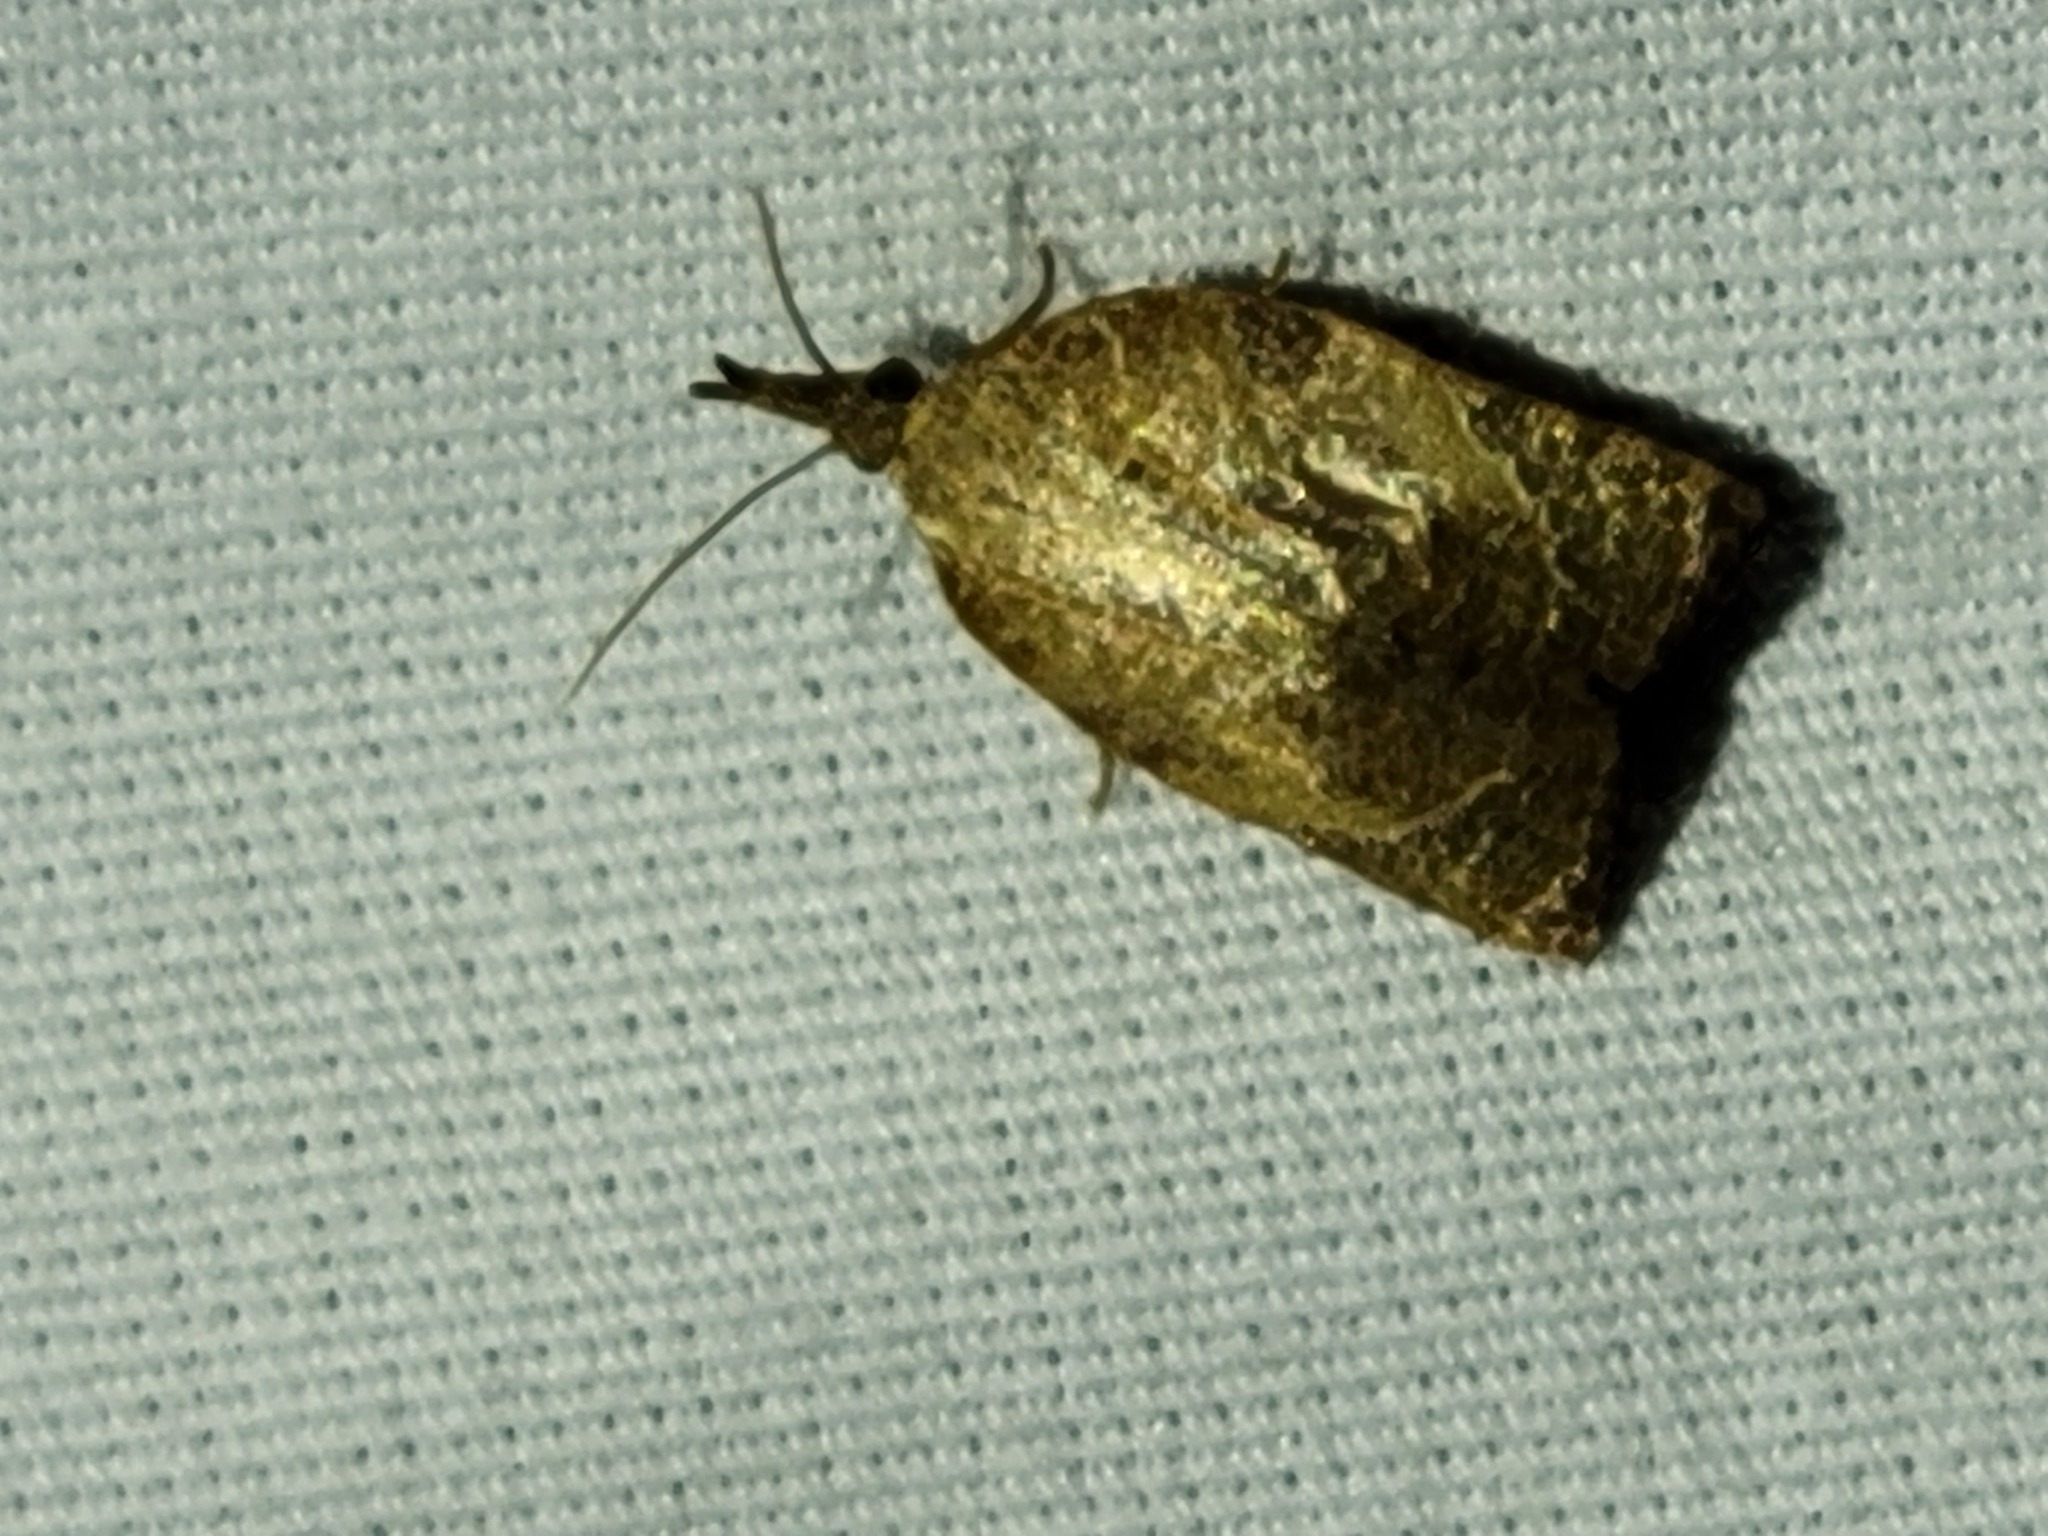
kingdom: Animalia
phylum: Arthropoda
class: Insecta
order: Lepidoptera
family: Tortricidae
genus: Platynota
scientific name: Platynota rostrana
